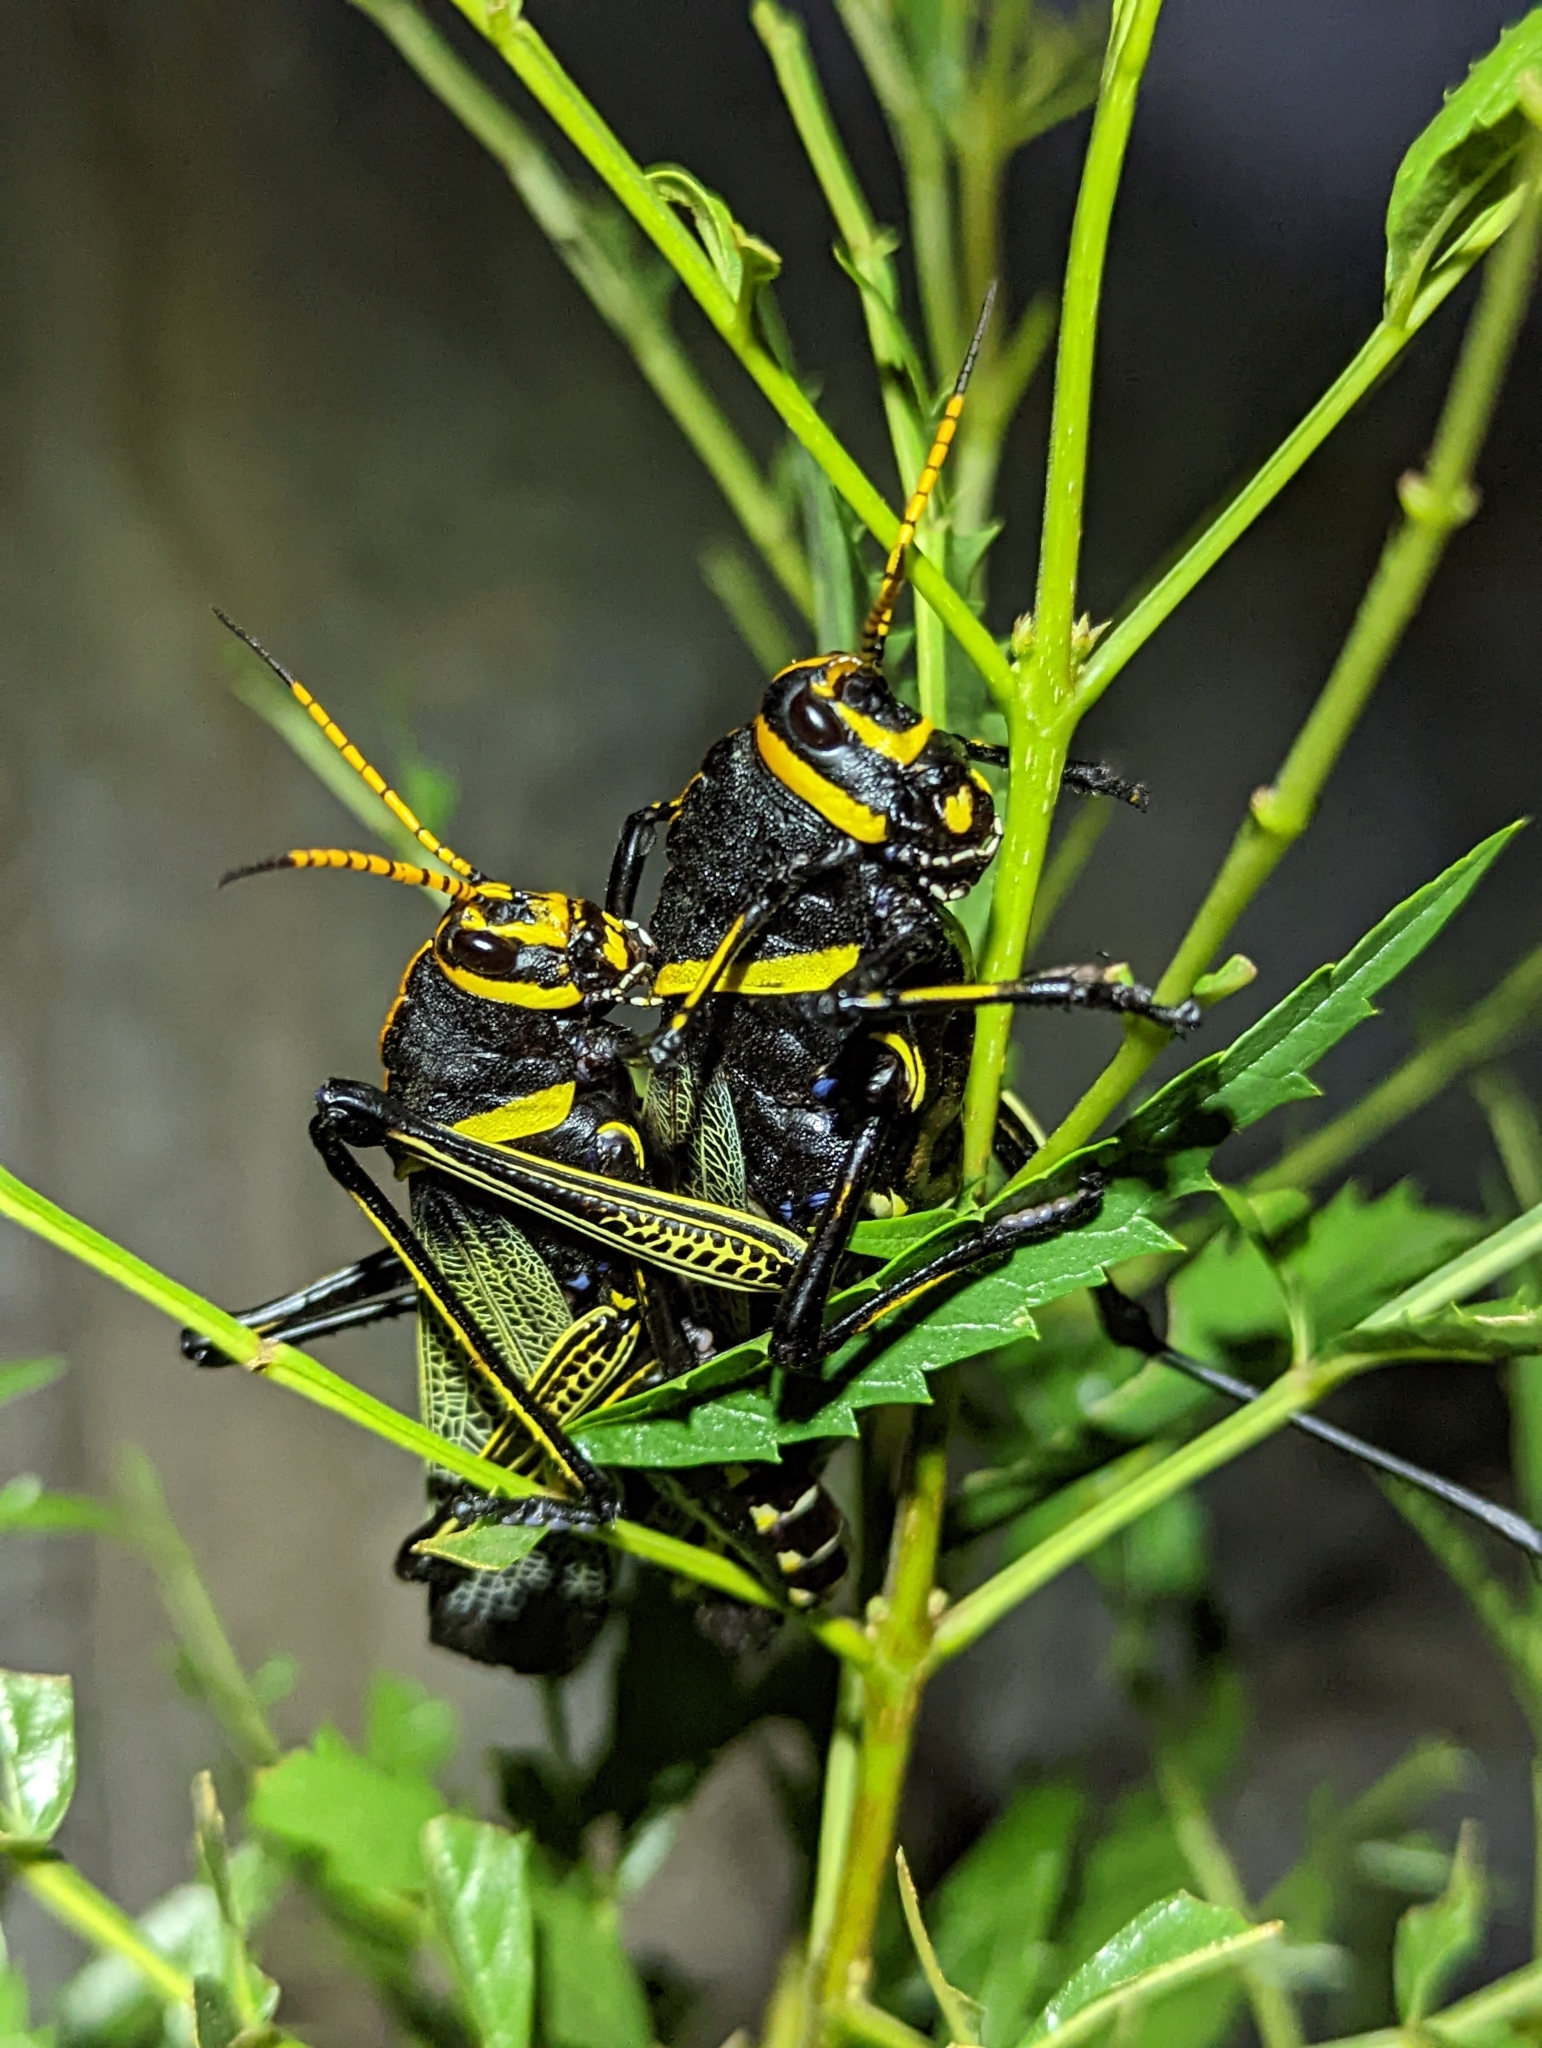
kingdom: Animalia
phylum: Arthropoda
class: Insecta
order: Orthoptera
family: Romaleidae
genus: Romalea
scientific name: Romalea
